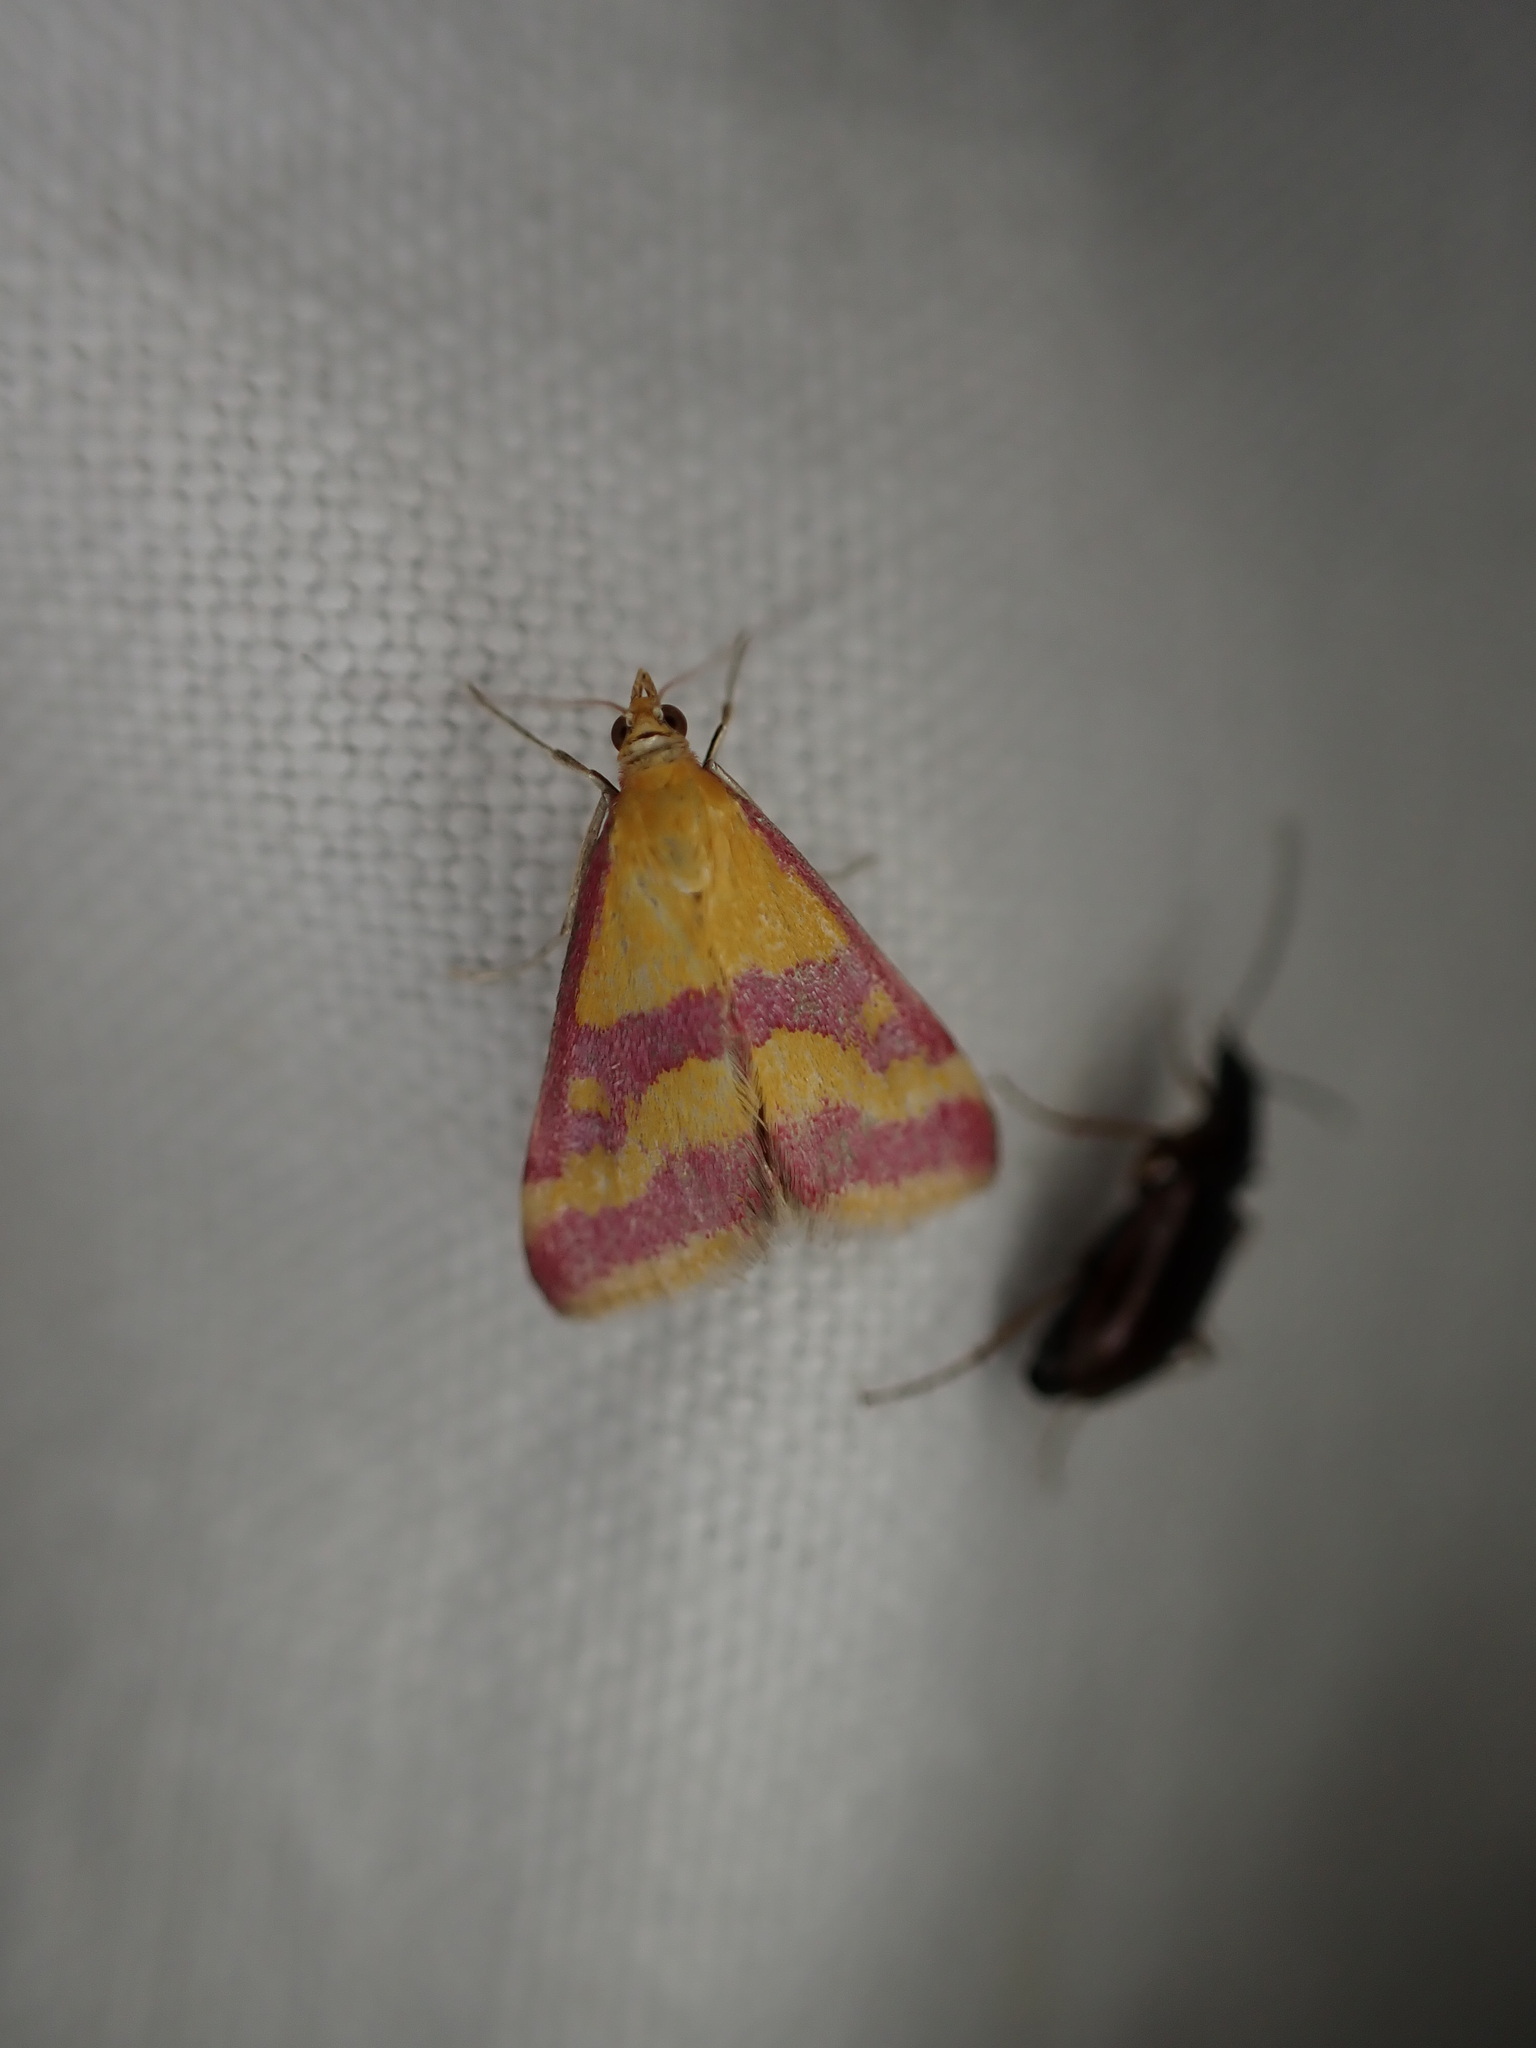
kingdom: Animalia
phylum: Arthropoda
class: Insecta
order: Lepidoptera
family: Crambidae
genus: Pyrausta
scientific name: Pyrausta sanguinalis
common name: Scarce crimson and gold
